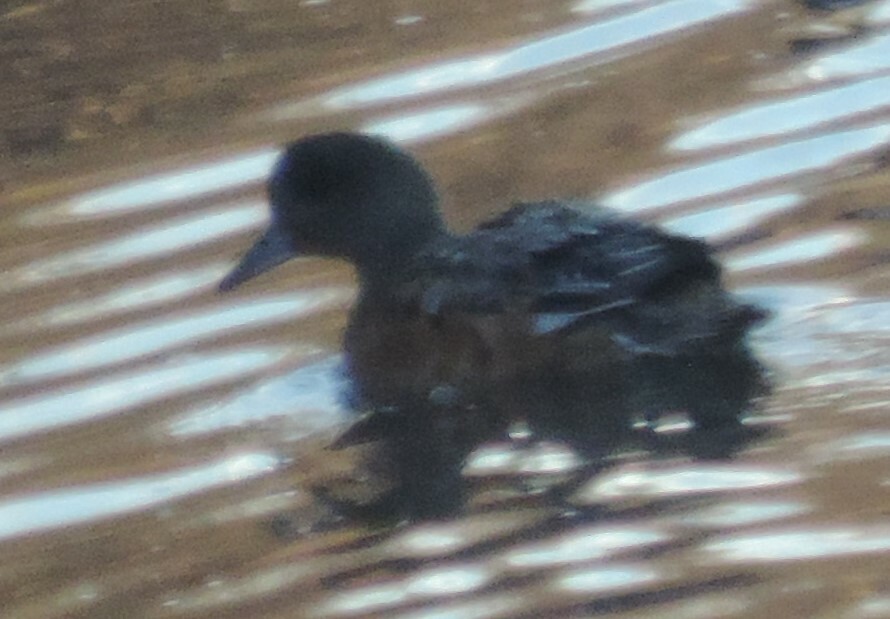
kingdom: Animalia
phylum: Chordata
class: Aves
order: Anseriformes
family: Anatidae
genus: Mareca
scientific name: Mareca americana
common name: American wigeon
